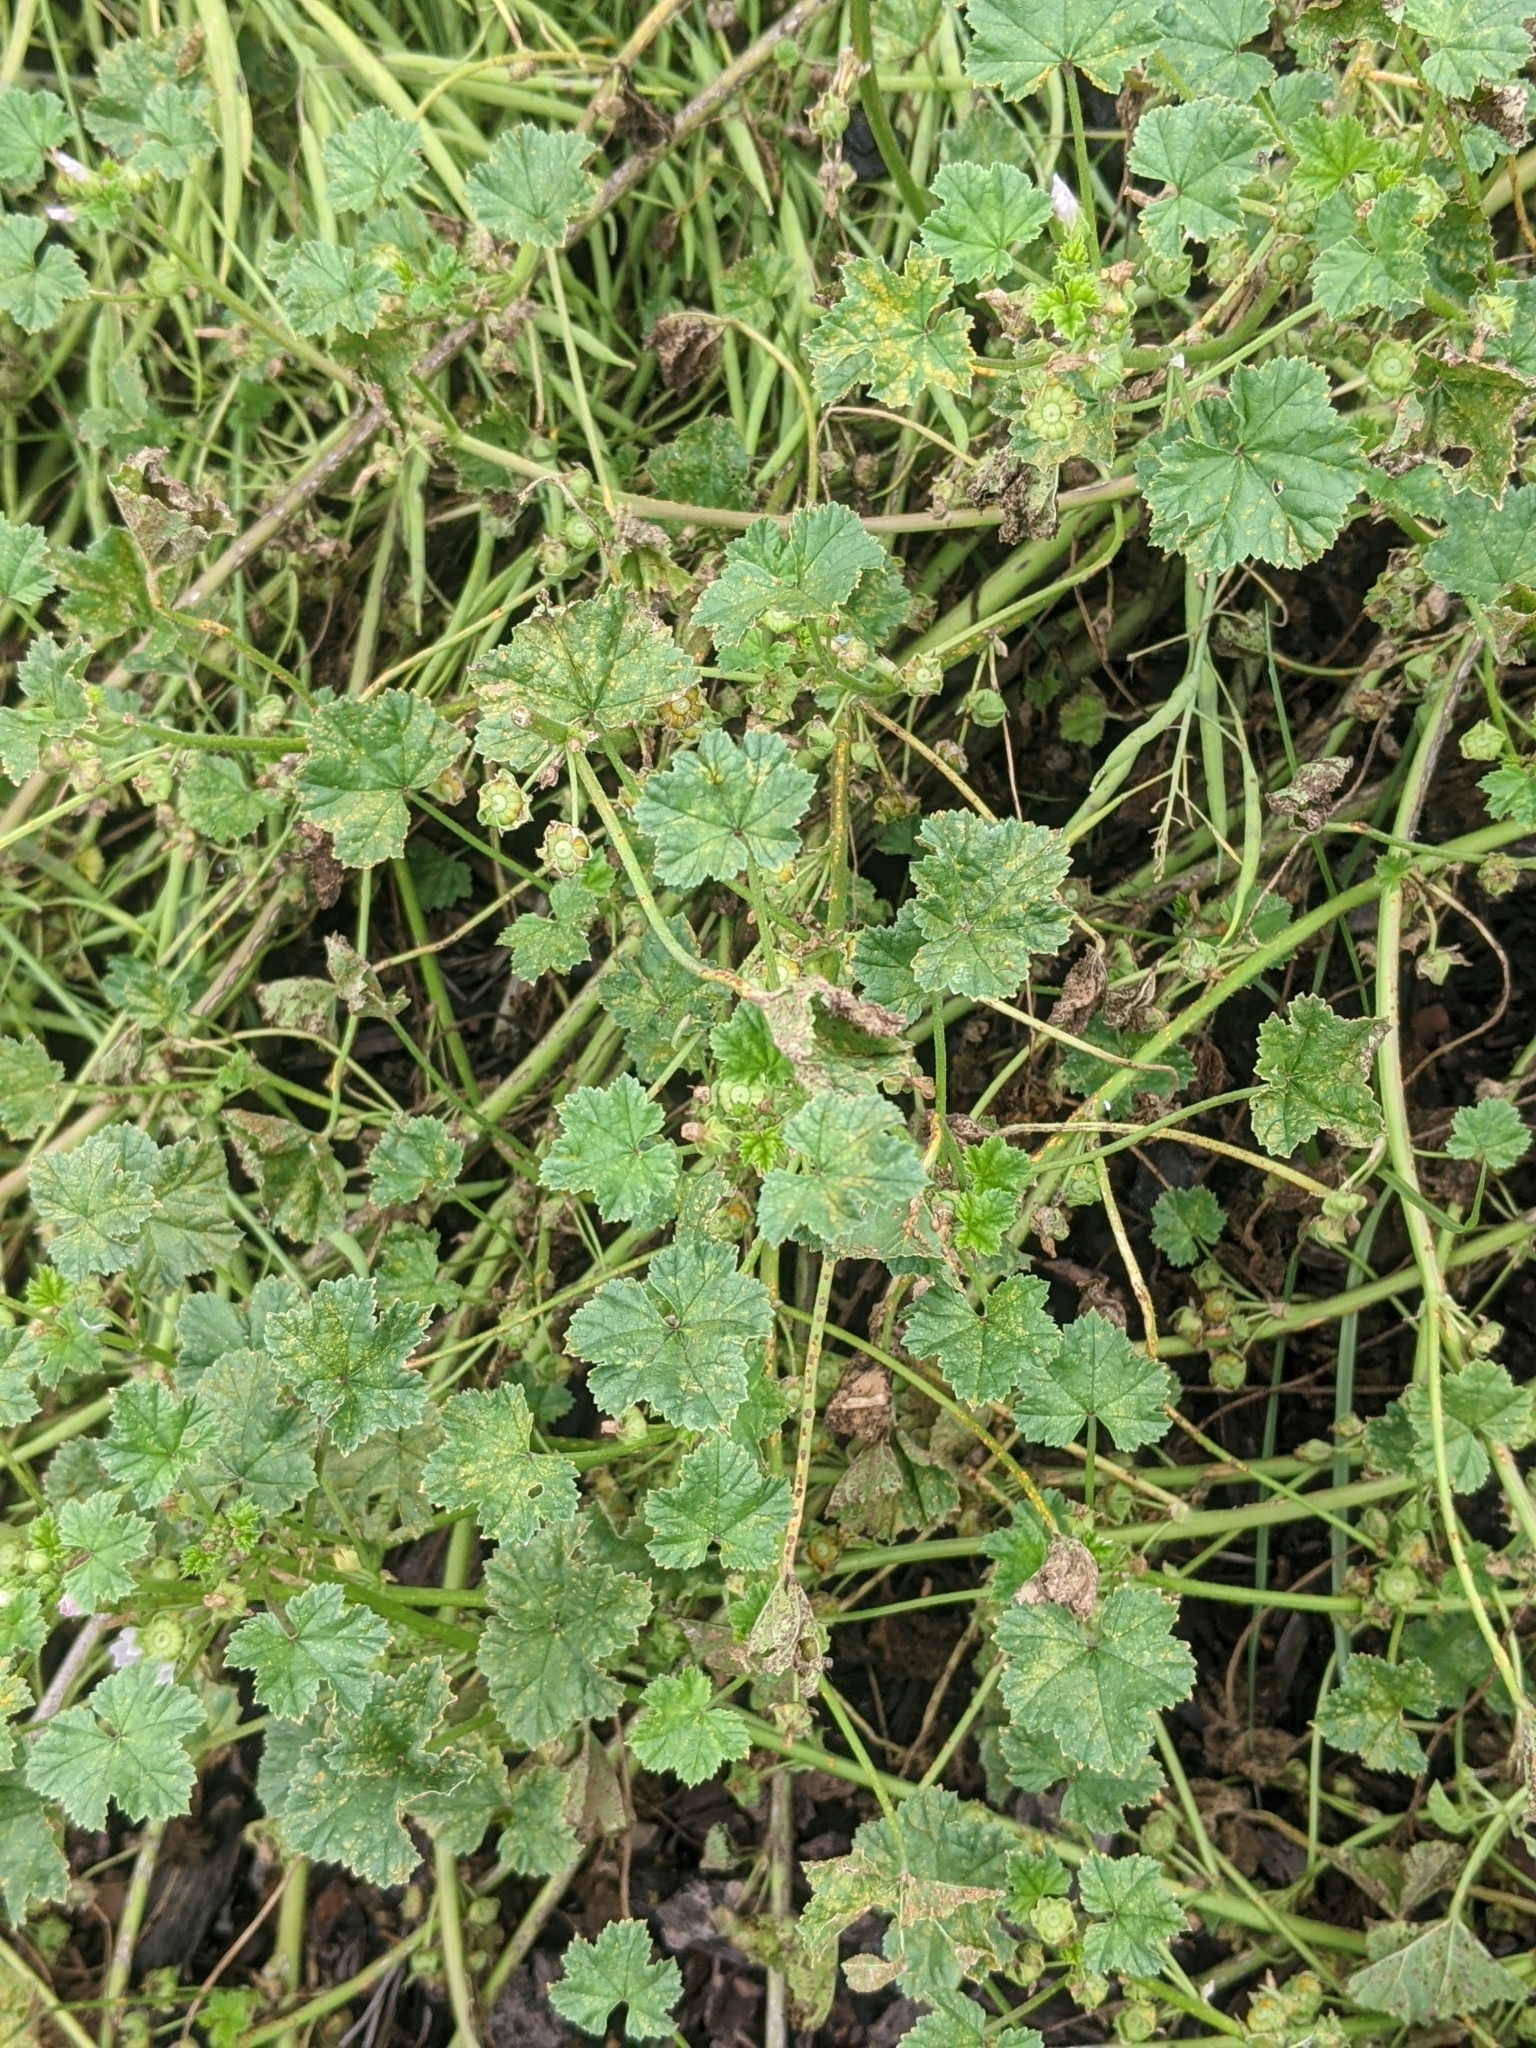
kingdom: Plantae
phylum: Tracheophyta
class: Magnoliopsida
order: Malvales
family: Malvaceae
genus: Malva
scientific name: Malva neglecta
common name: Common mallow
